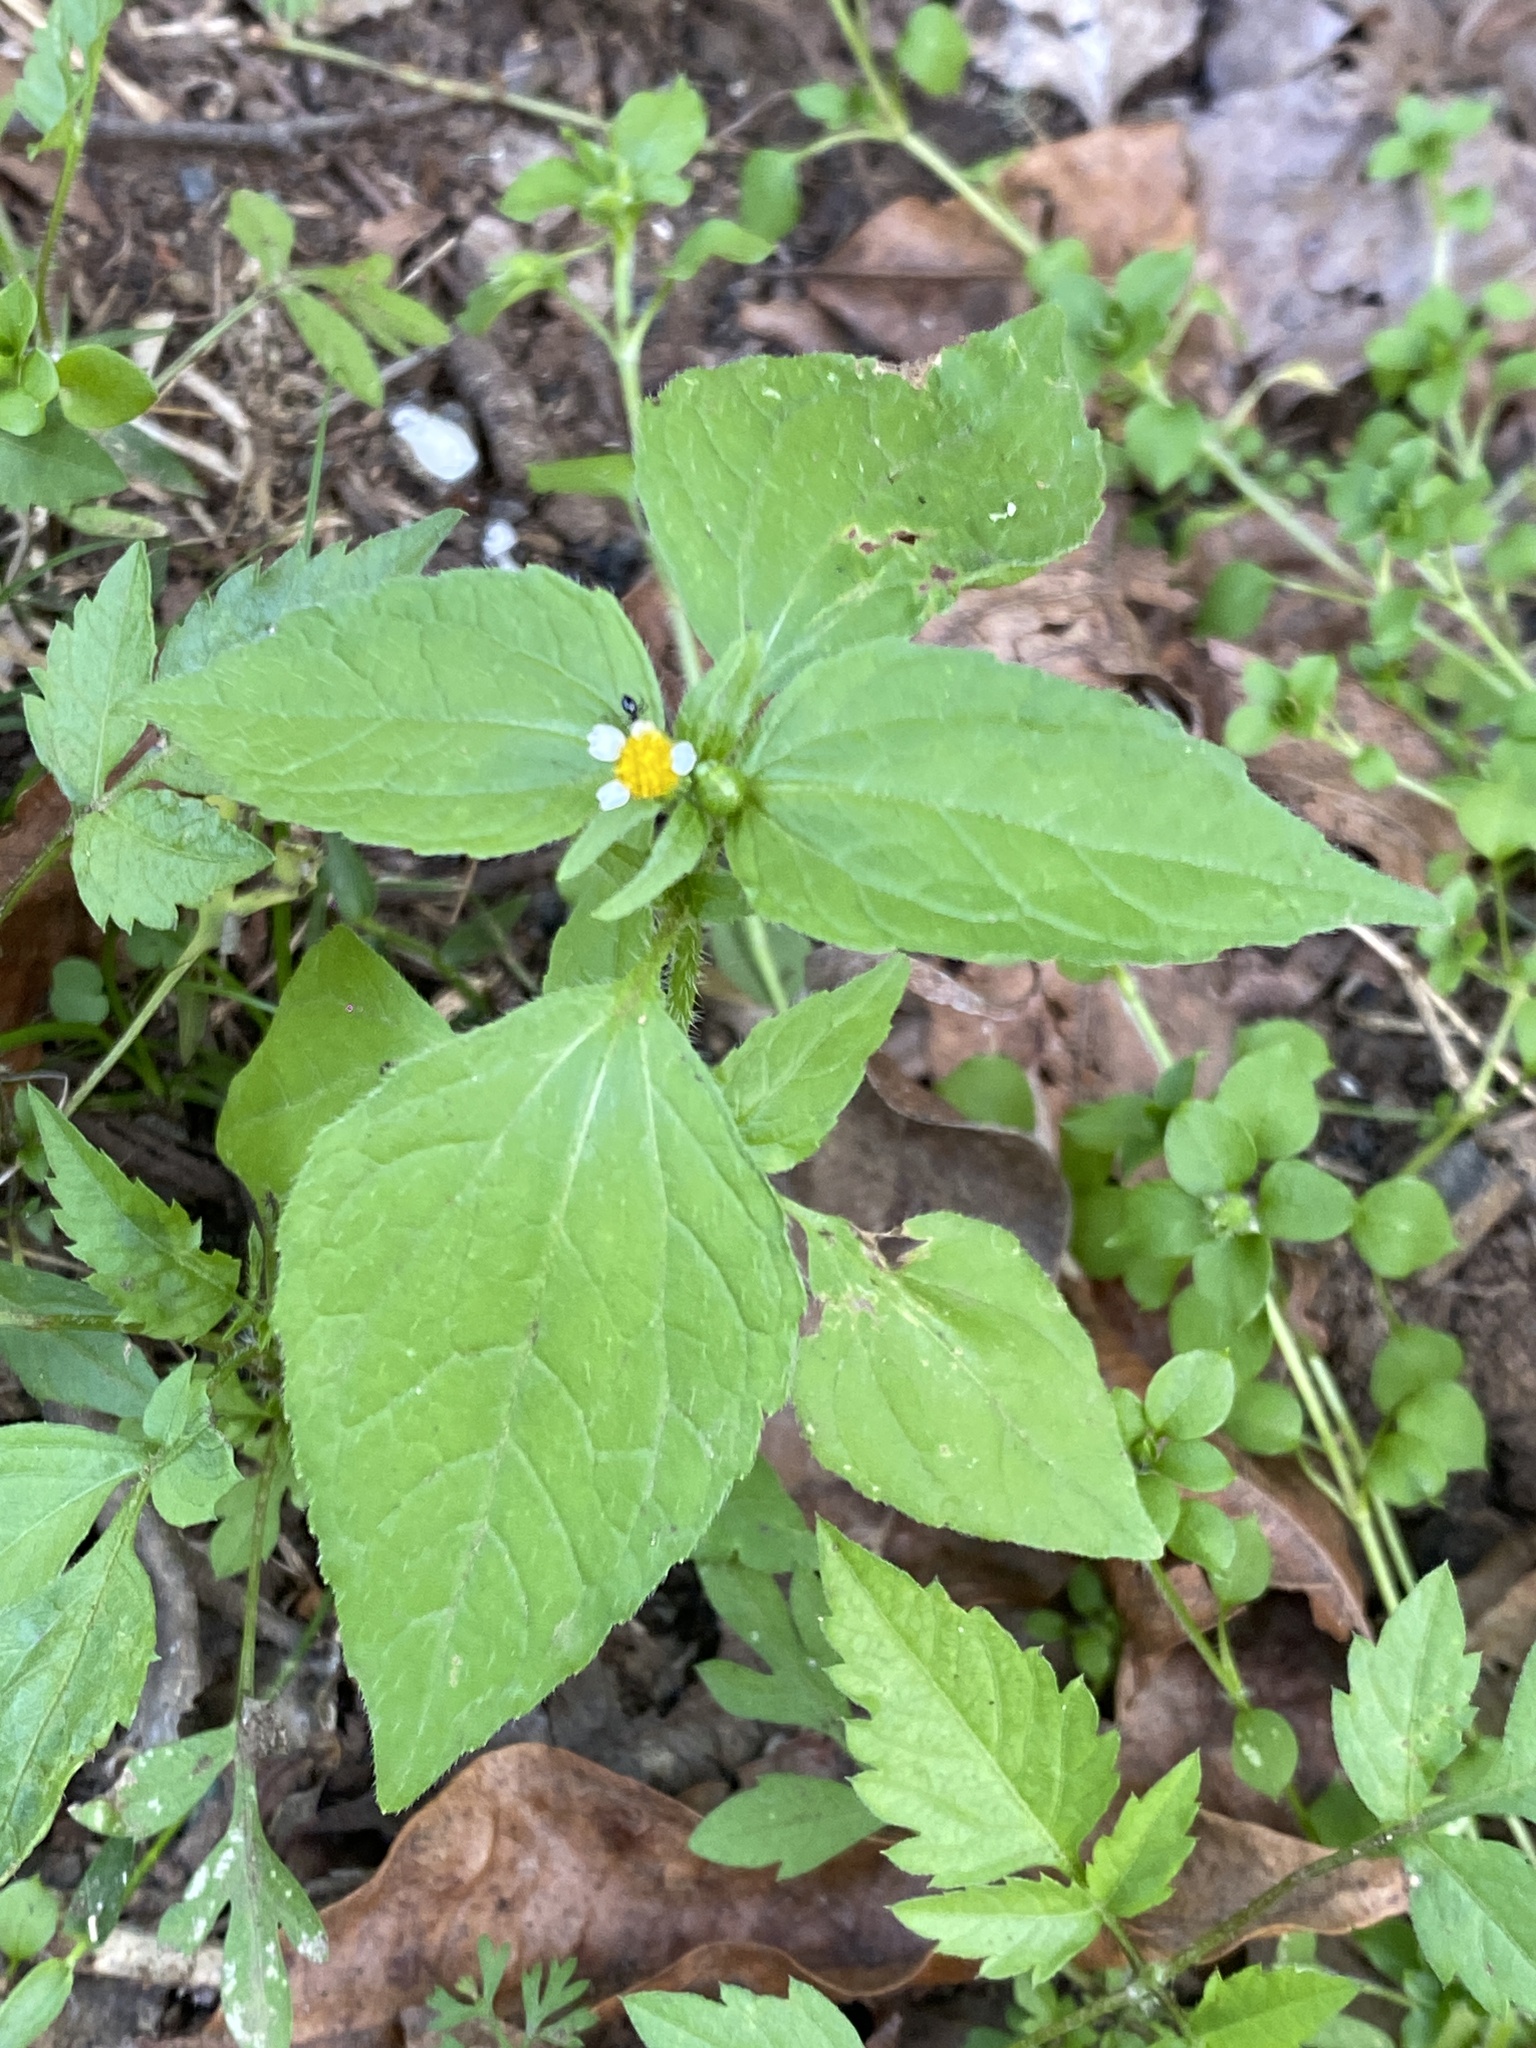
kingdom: Plantae
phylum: Tracheophyta
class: Magnoliopsida
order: Asterales
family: Asteraceae
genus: Galinsoga
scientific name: Galinsoga parviflora
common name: Gallant soldier
